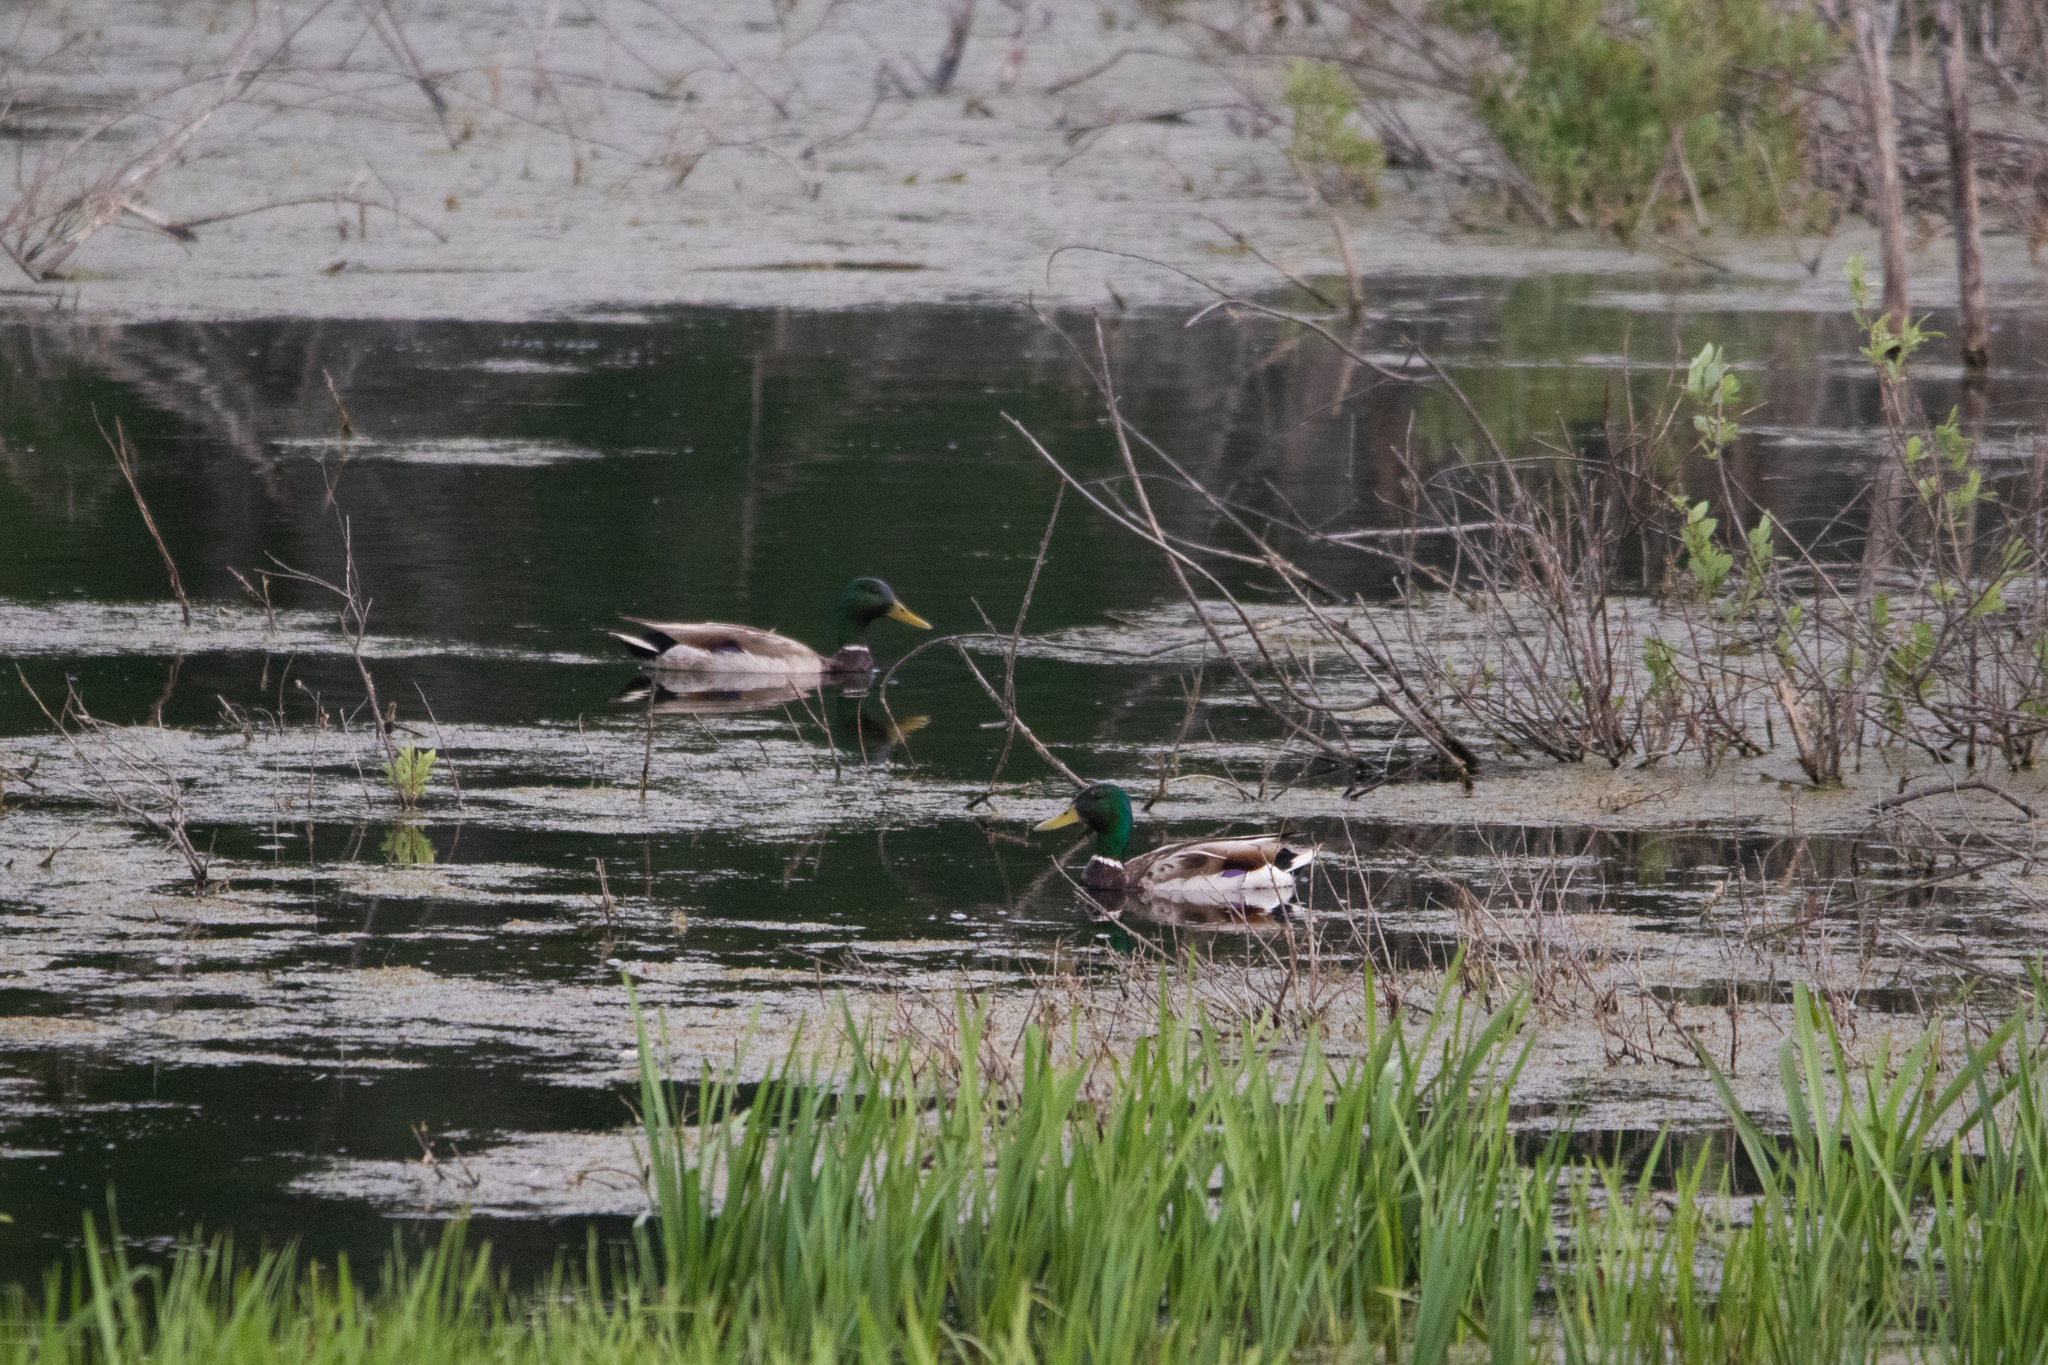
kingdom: Animalia
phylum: Chordata
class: Aves
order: Anseriformes
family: Anatidae
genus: Anas
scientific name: Anas platyrhynchos
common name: Mallard
